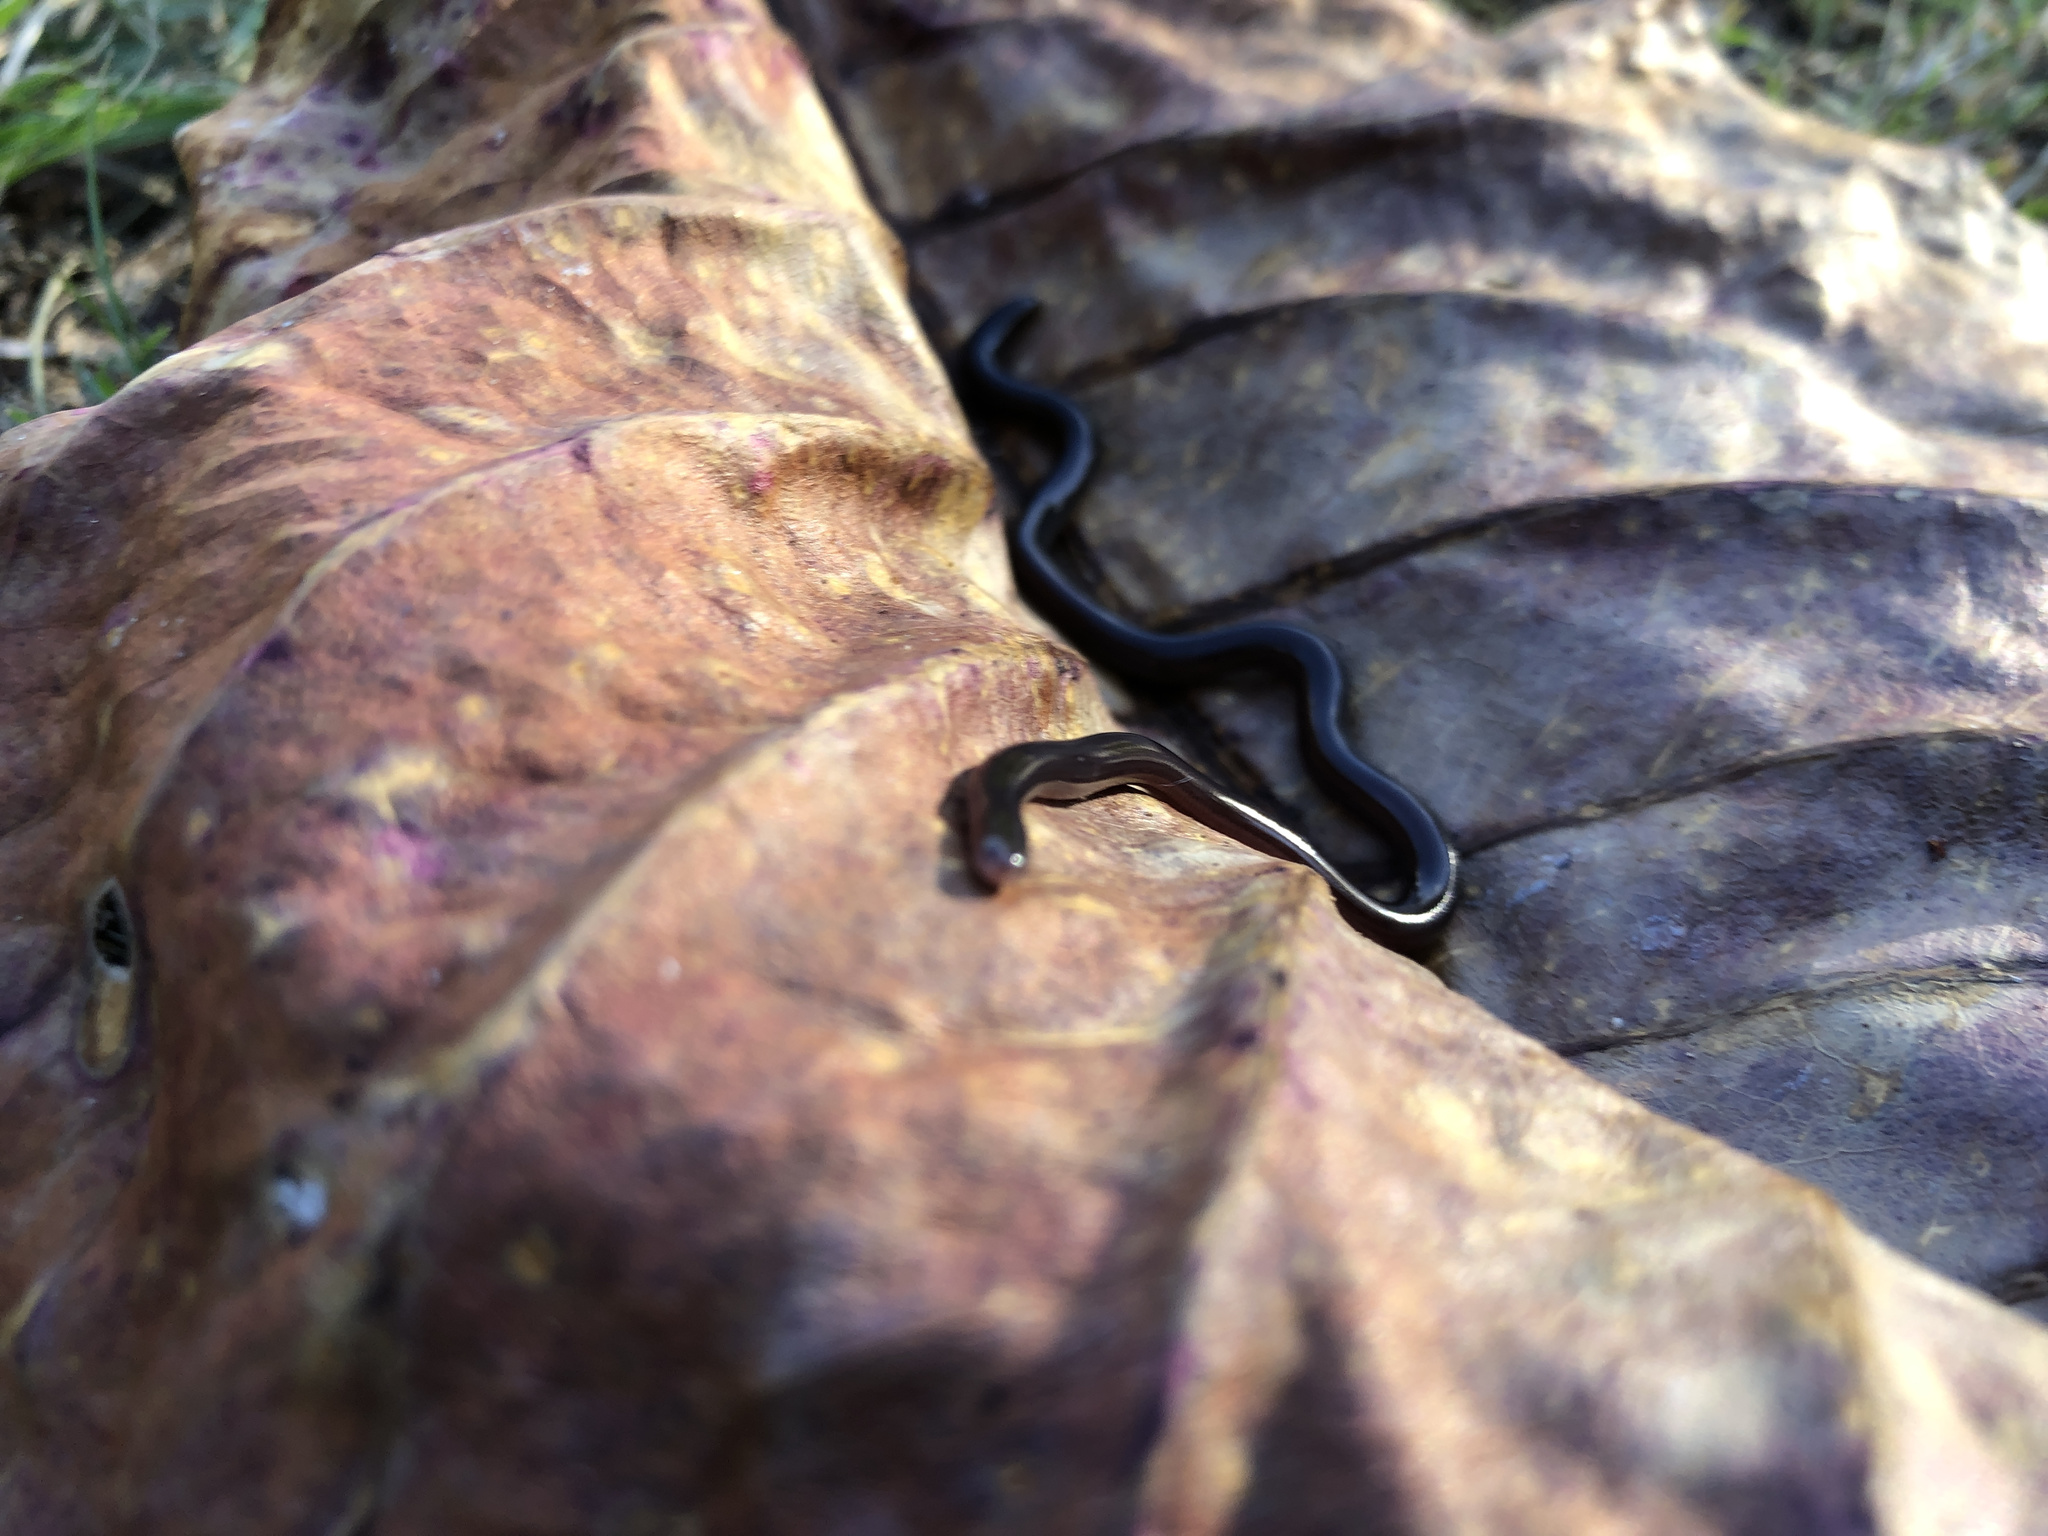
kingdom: Animalia
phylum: Chordata
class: Squamata
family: Typhlopidae
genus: Indotyphlops
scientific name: Indotyphlops braminus
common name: Brahminy blindsnake
